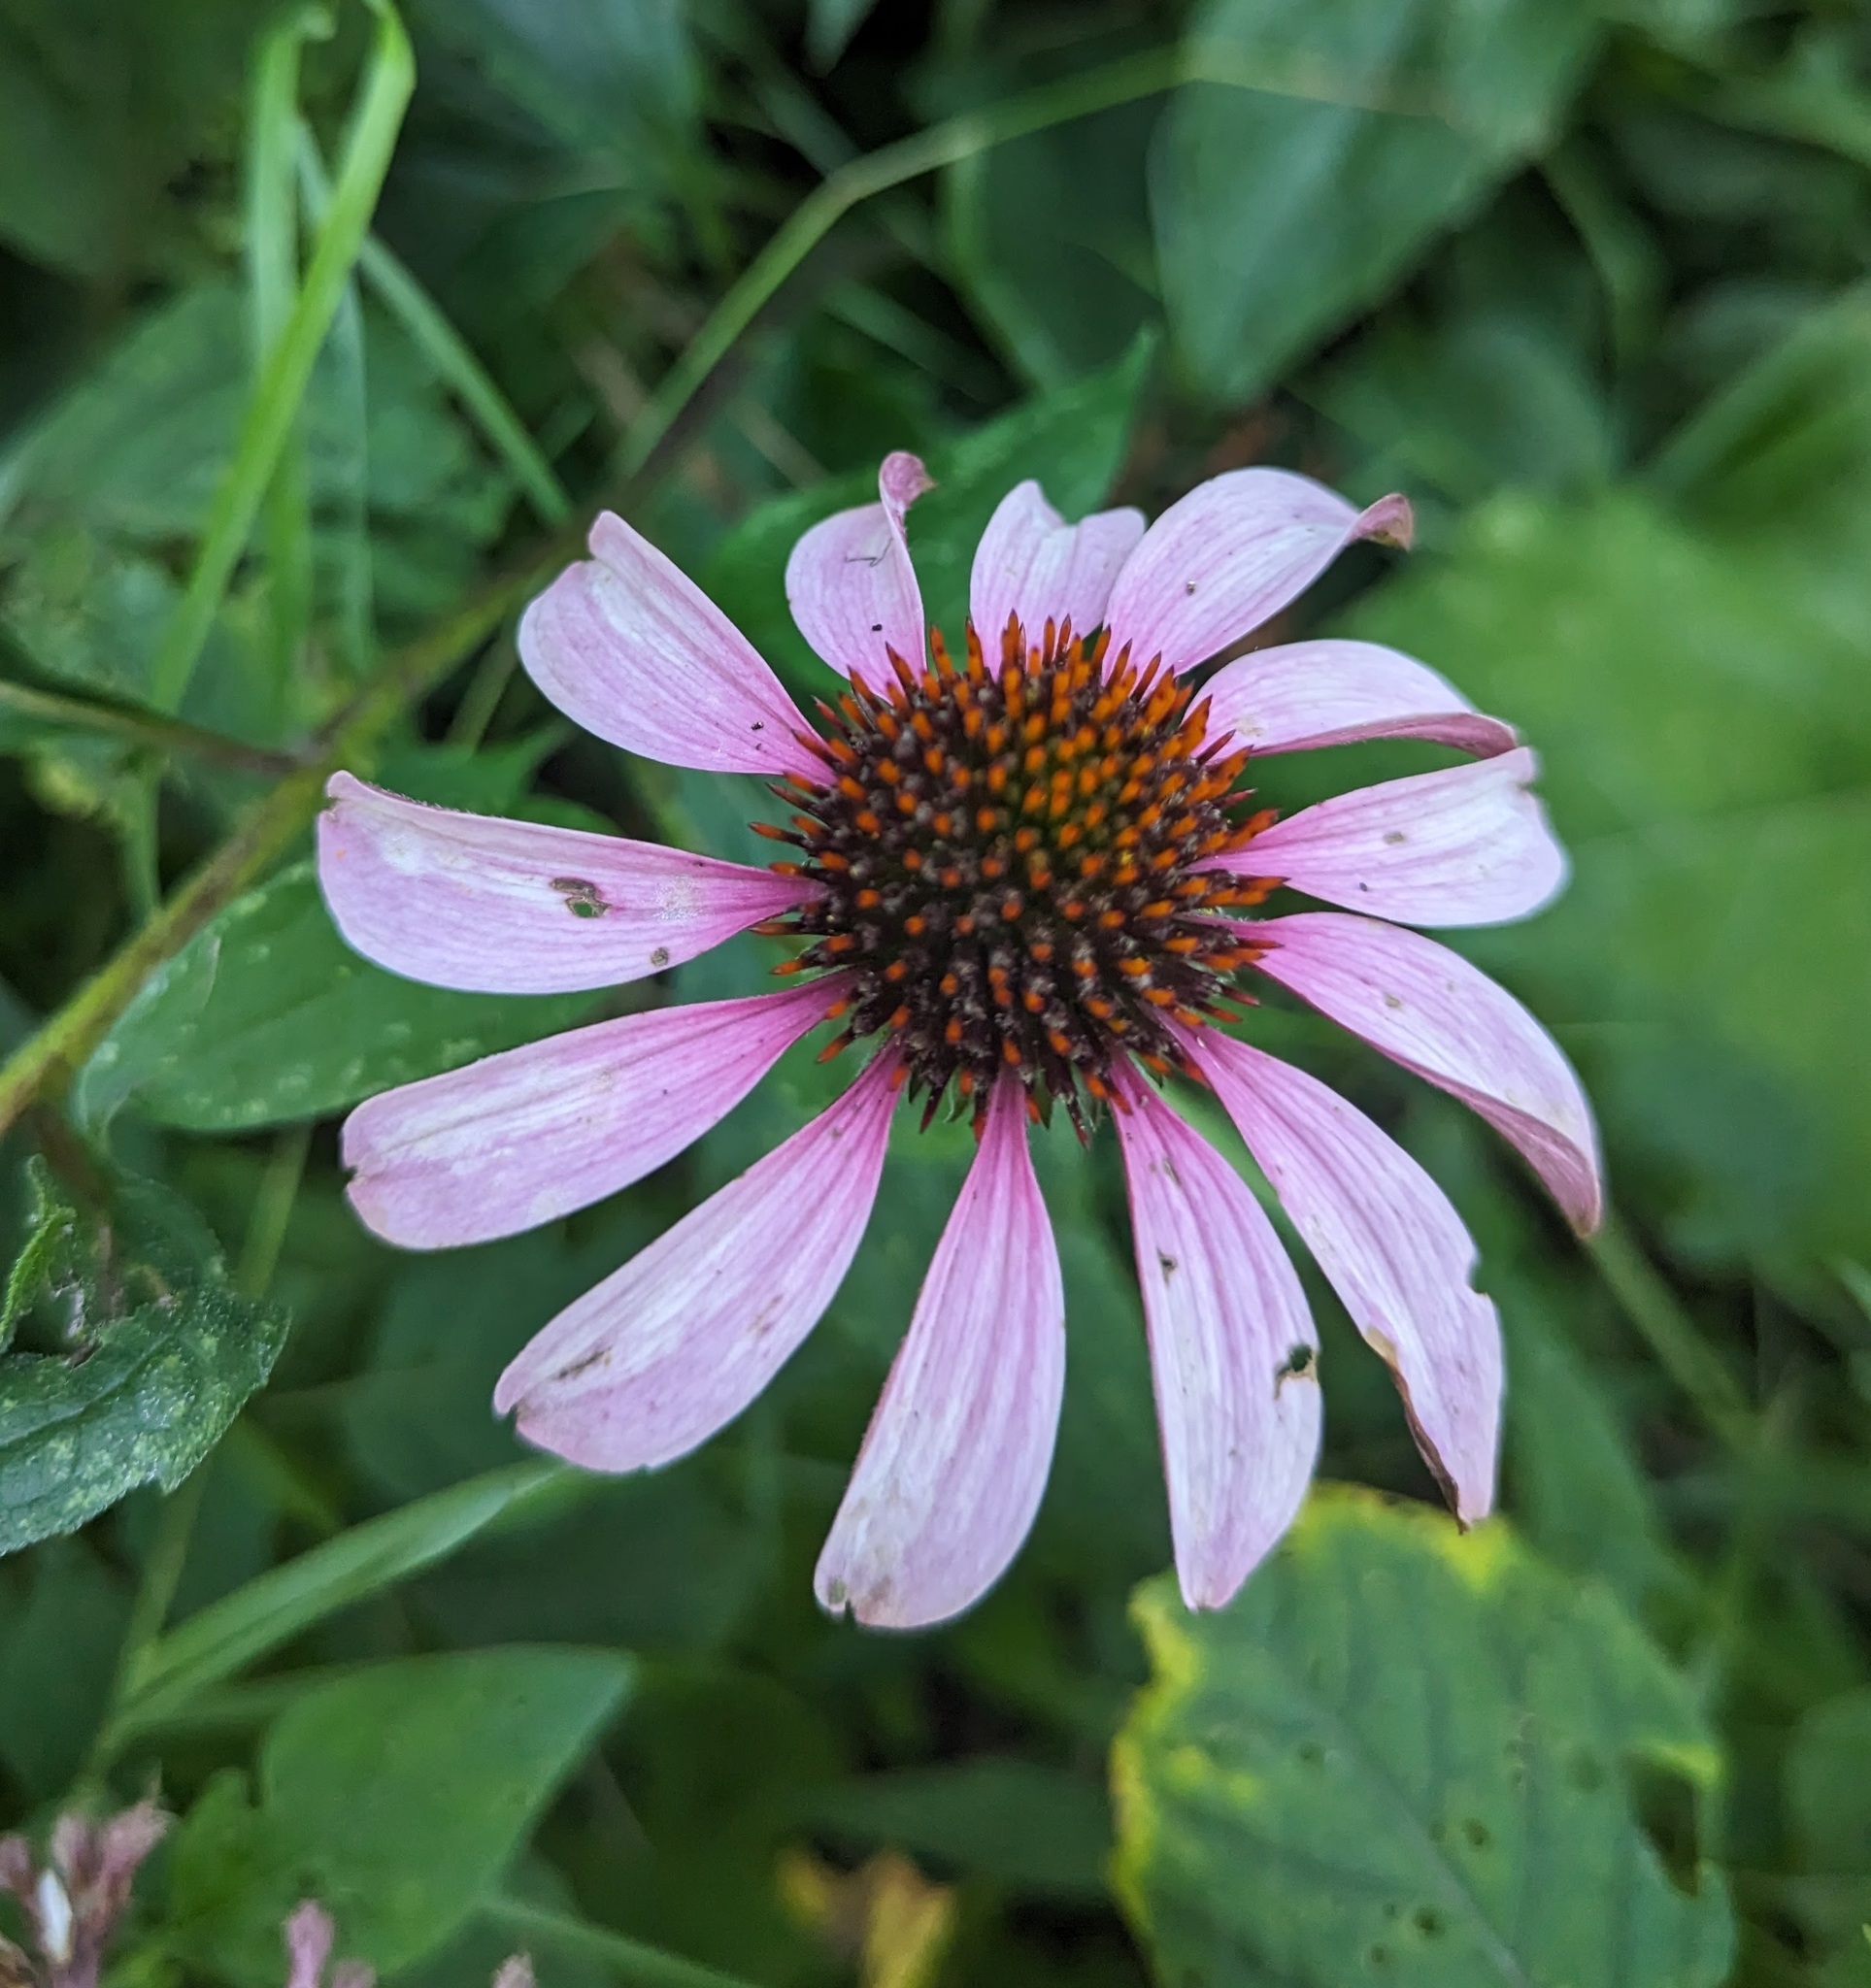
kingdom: Plantae
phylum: Tracheophyta
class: Magnoliopsida
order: Asterales
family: Asteraceae
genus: Echinacea
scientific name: Echinacea purpurea
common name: Broad-leaved purple coneflower
